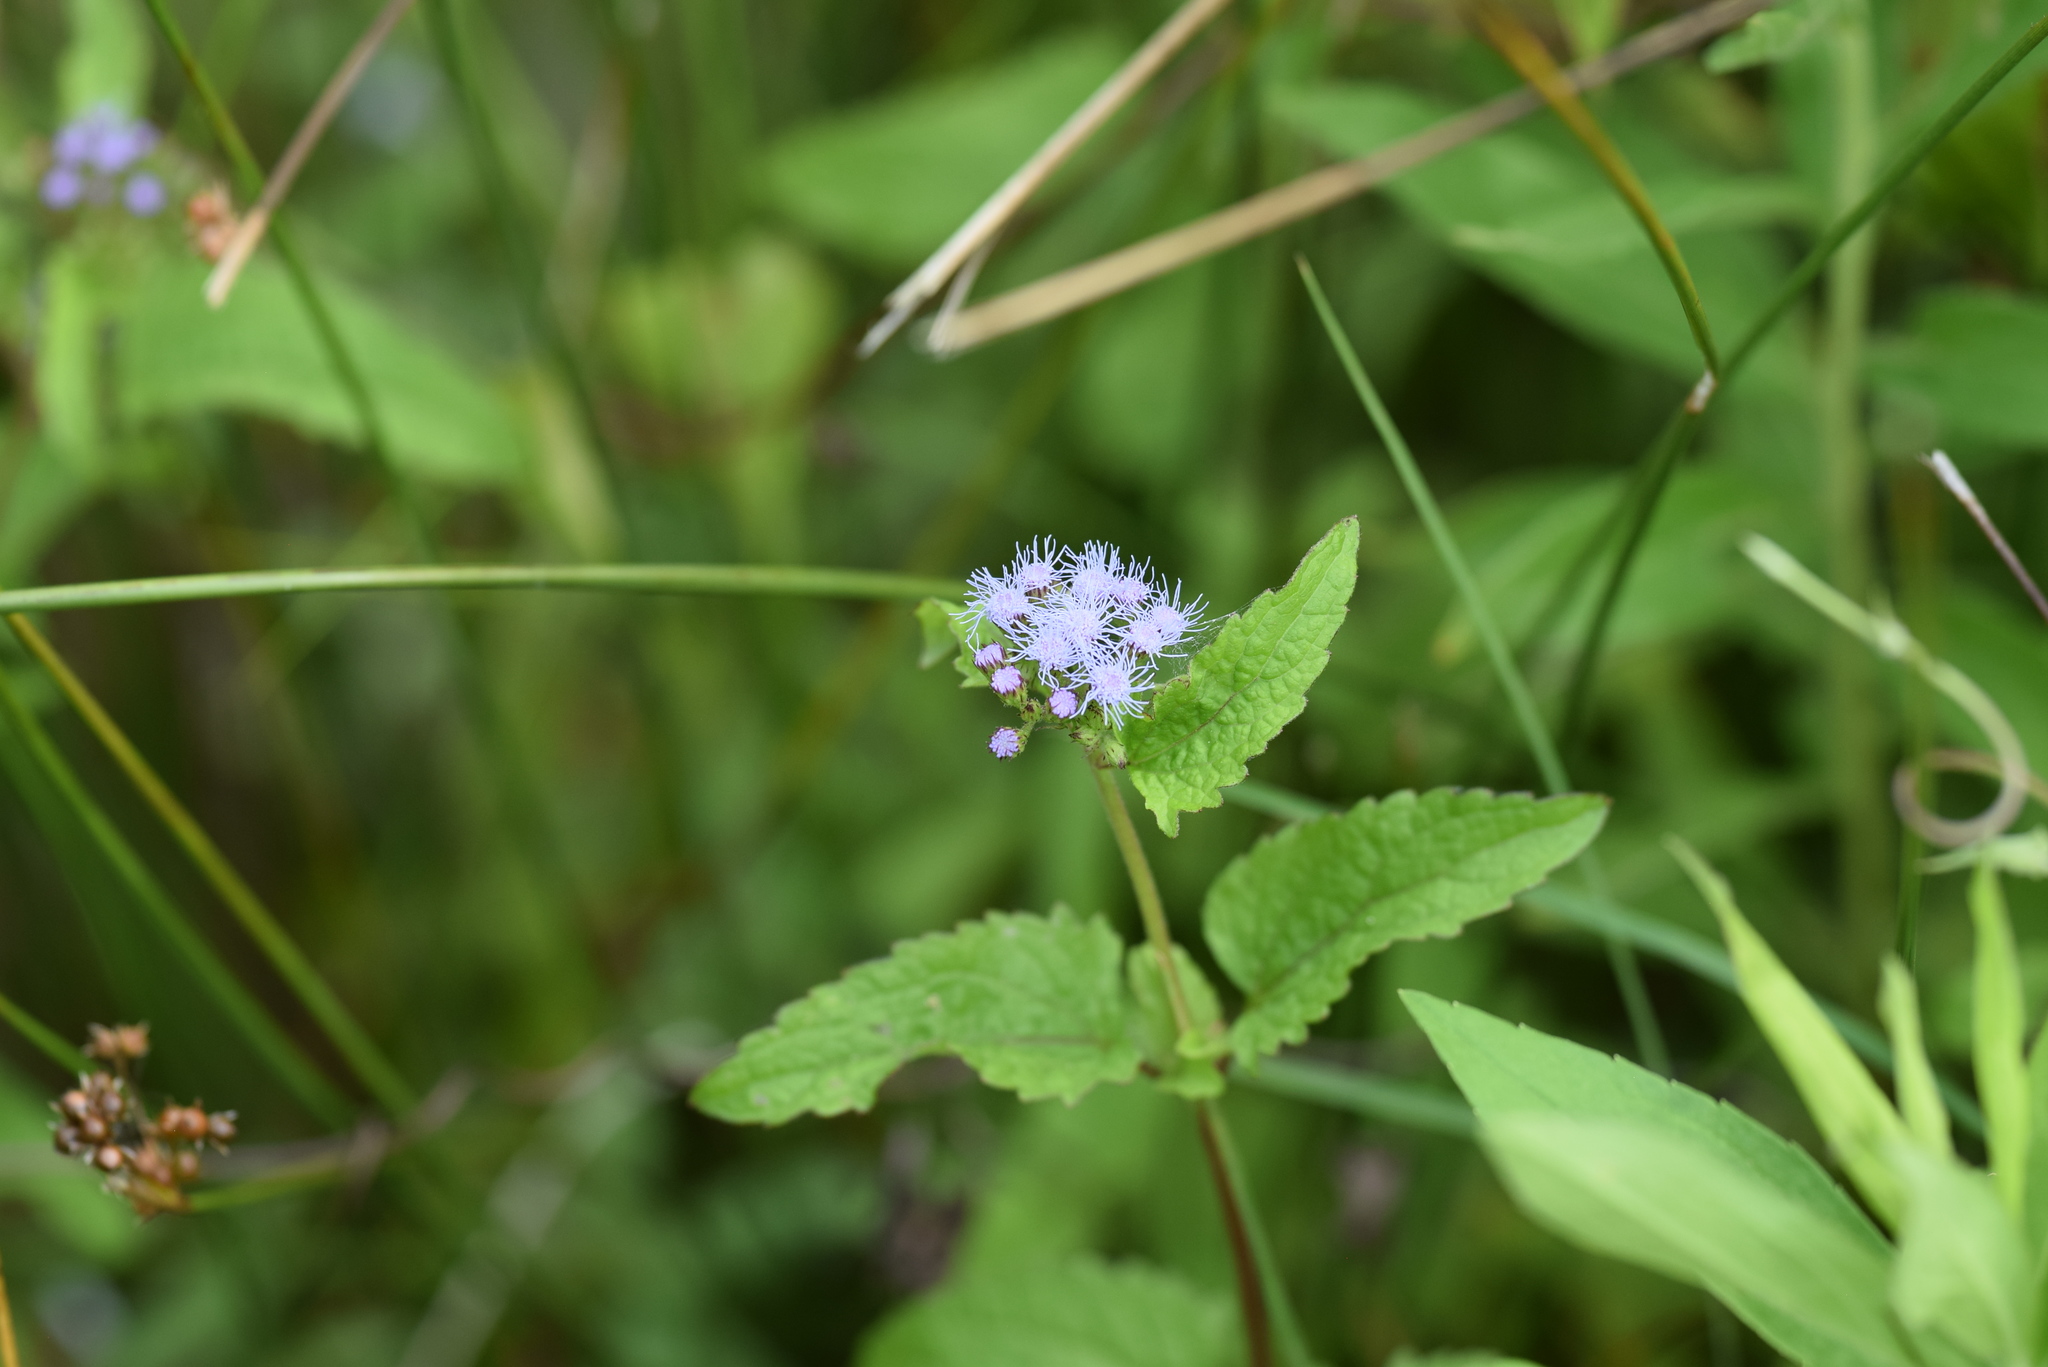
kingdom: Plantae
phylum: Tracheophyta
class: Magnoliopsida
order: Asterales
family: Asteraceae
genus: Conoclinium
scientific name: Conoclinium coelestinum
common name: Blue mistflower
